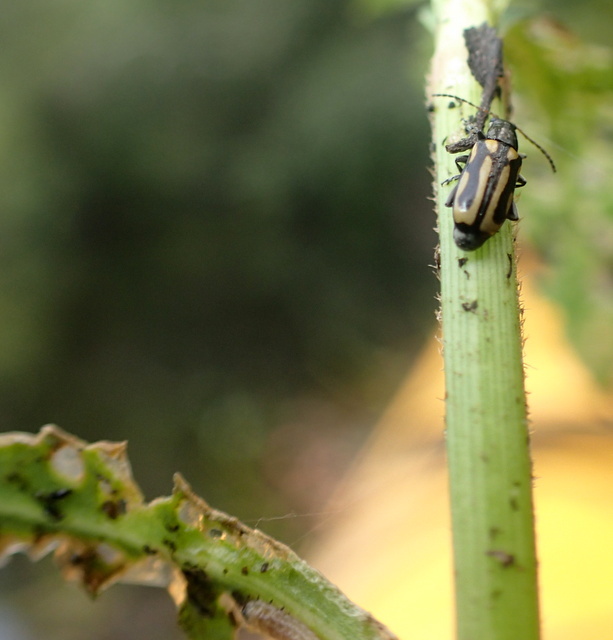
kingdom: Animalia
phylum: Arthropoda
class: Insecta
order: Coleoptera
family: Chrysomelidae
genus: Agasicles
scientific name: Agasicles hygrophila
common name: Alligatorweed flea beetle
